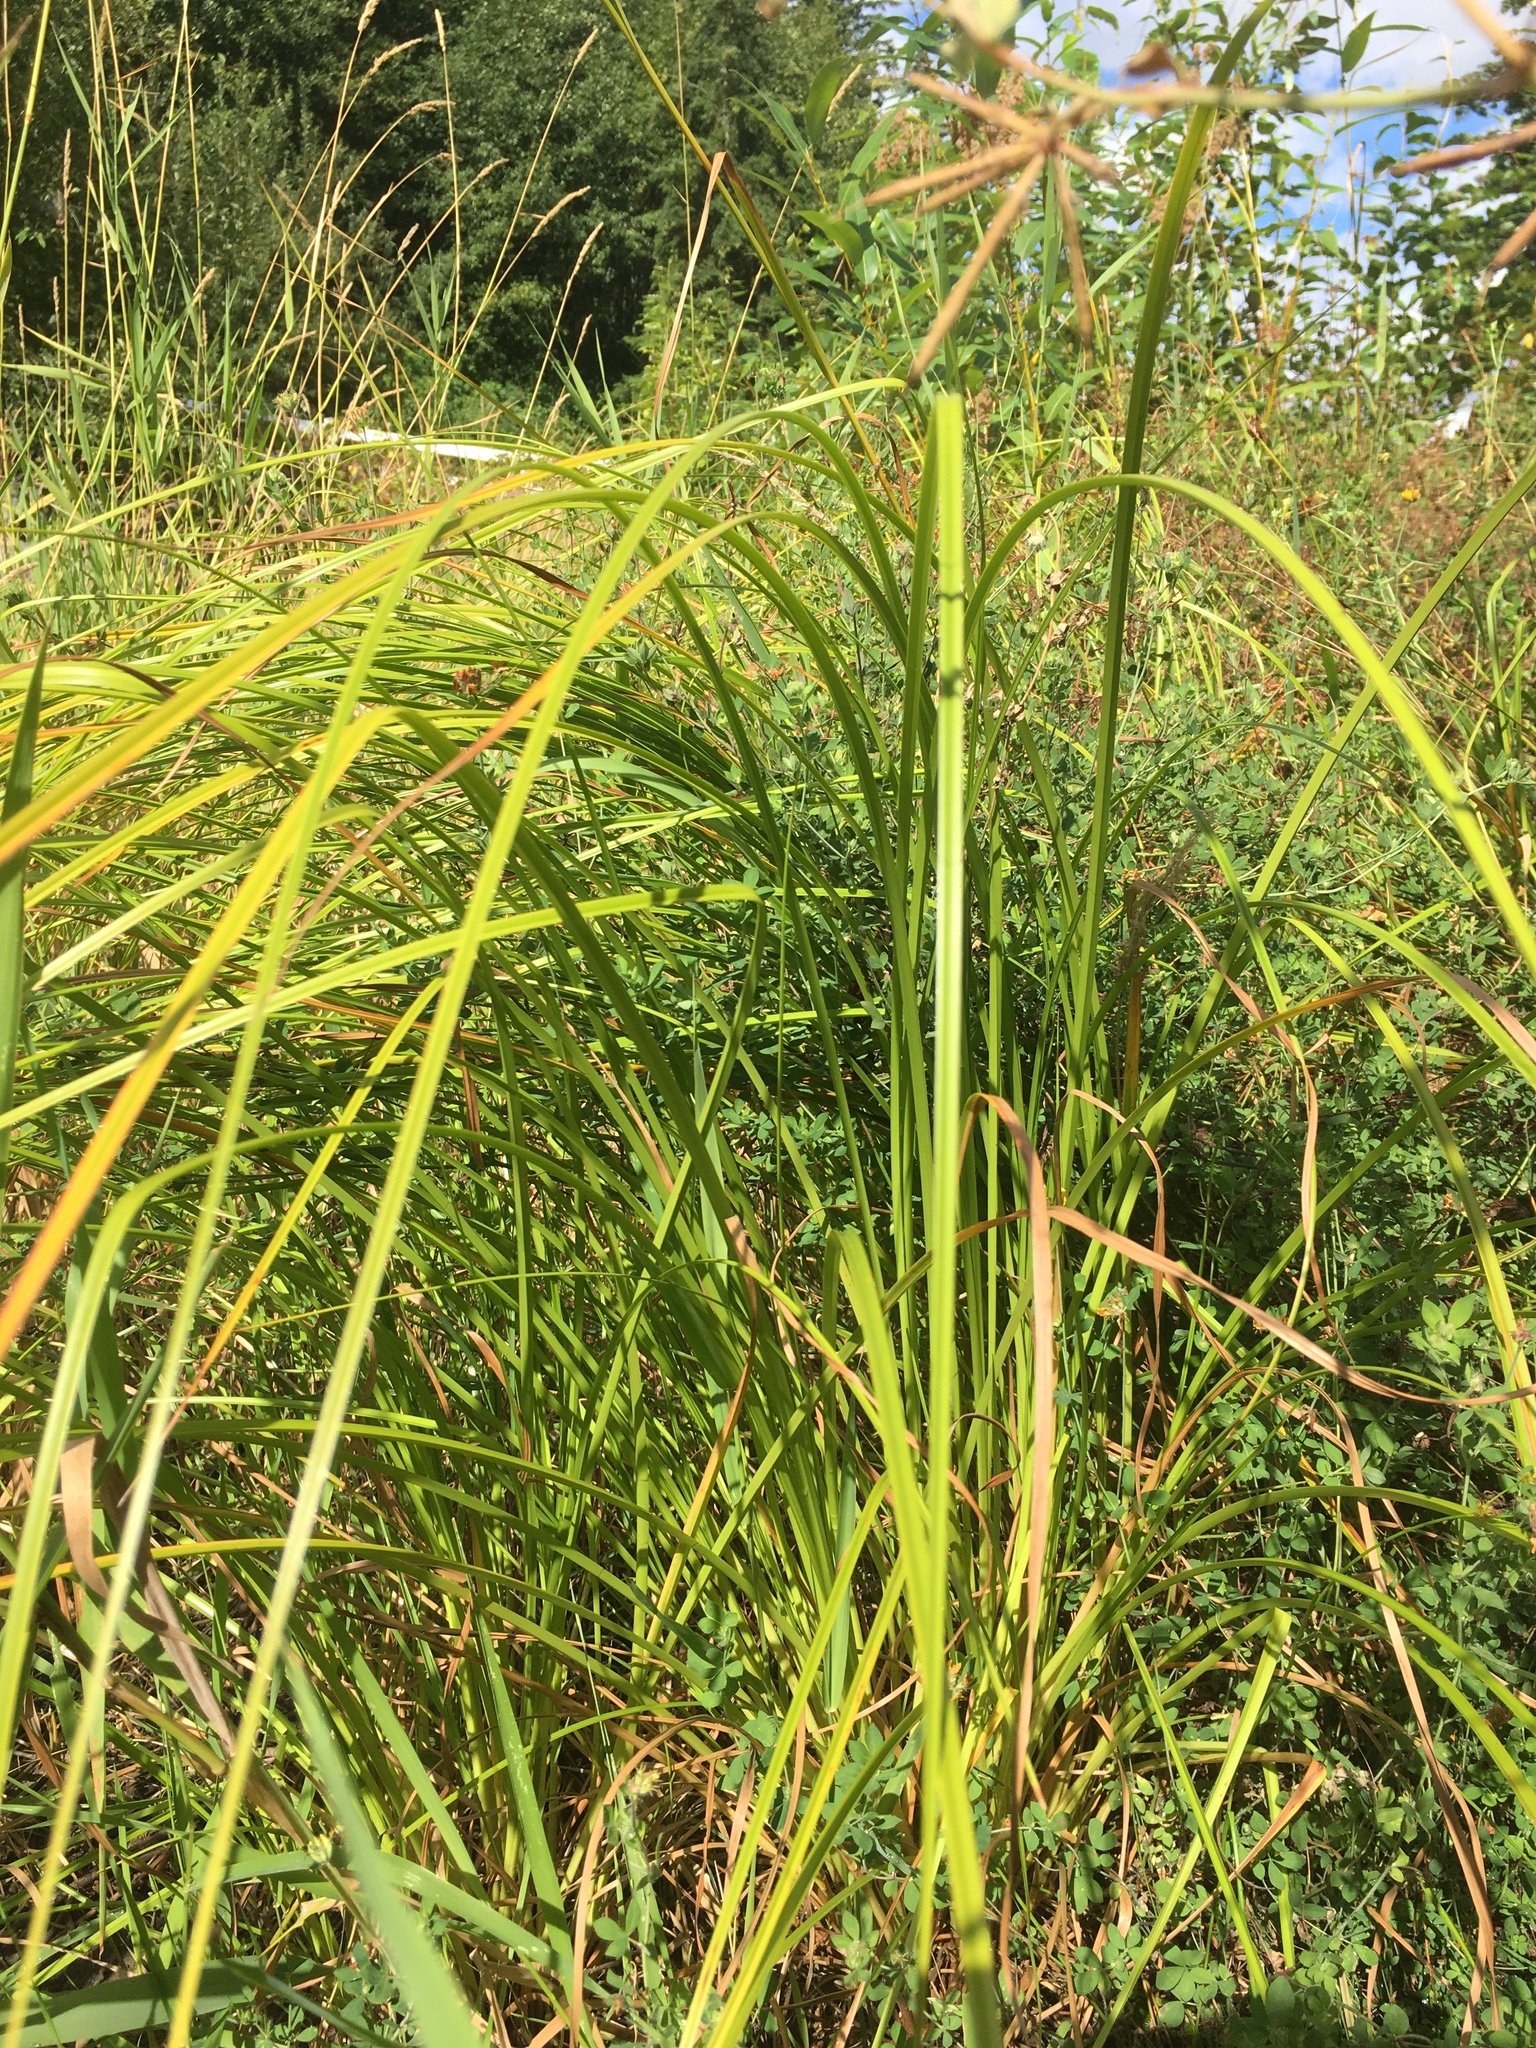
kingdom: Plantae
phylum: Tracheophyta
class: Liliopsida
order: Poales
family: Cyperaceae
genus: Scirpus
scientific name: Scirpus cyperinus
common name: Black-sheathed bulrush
